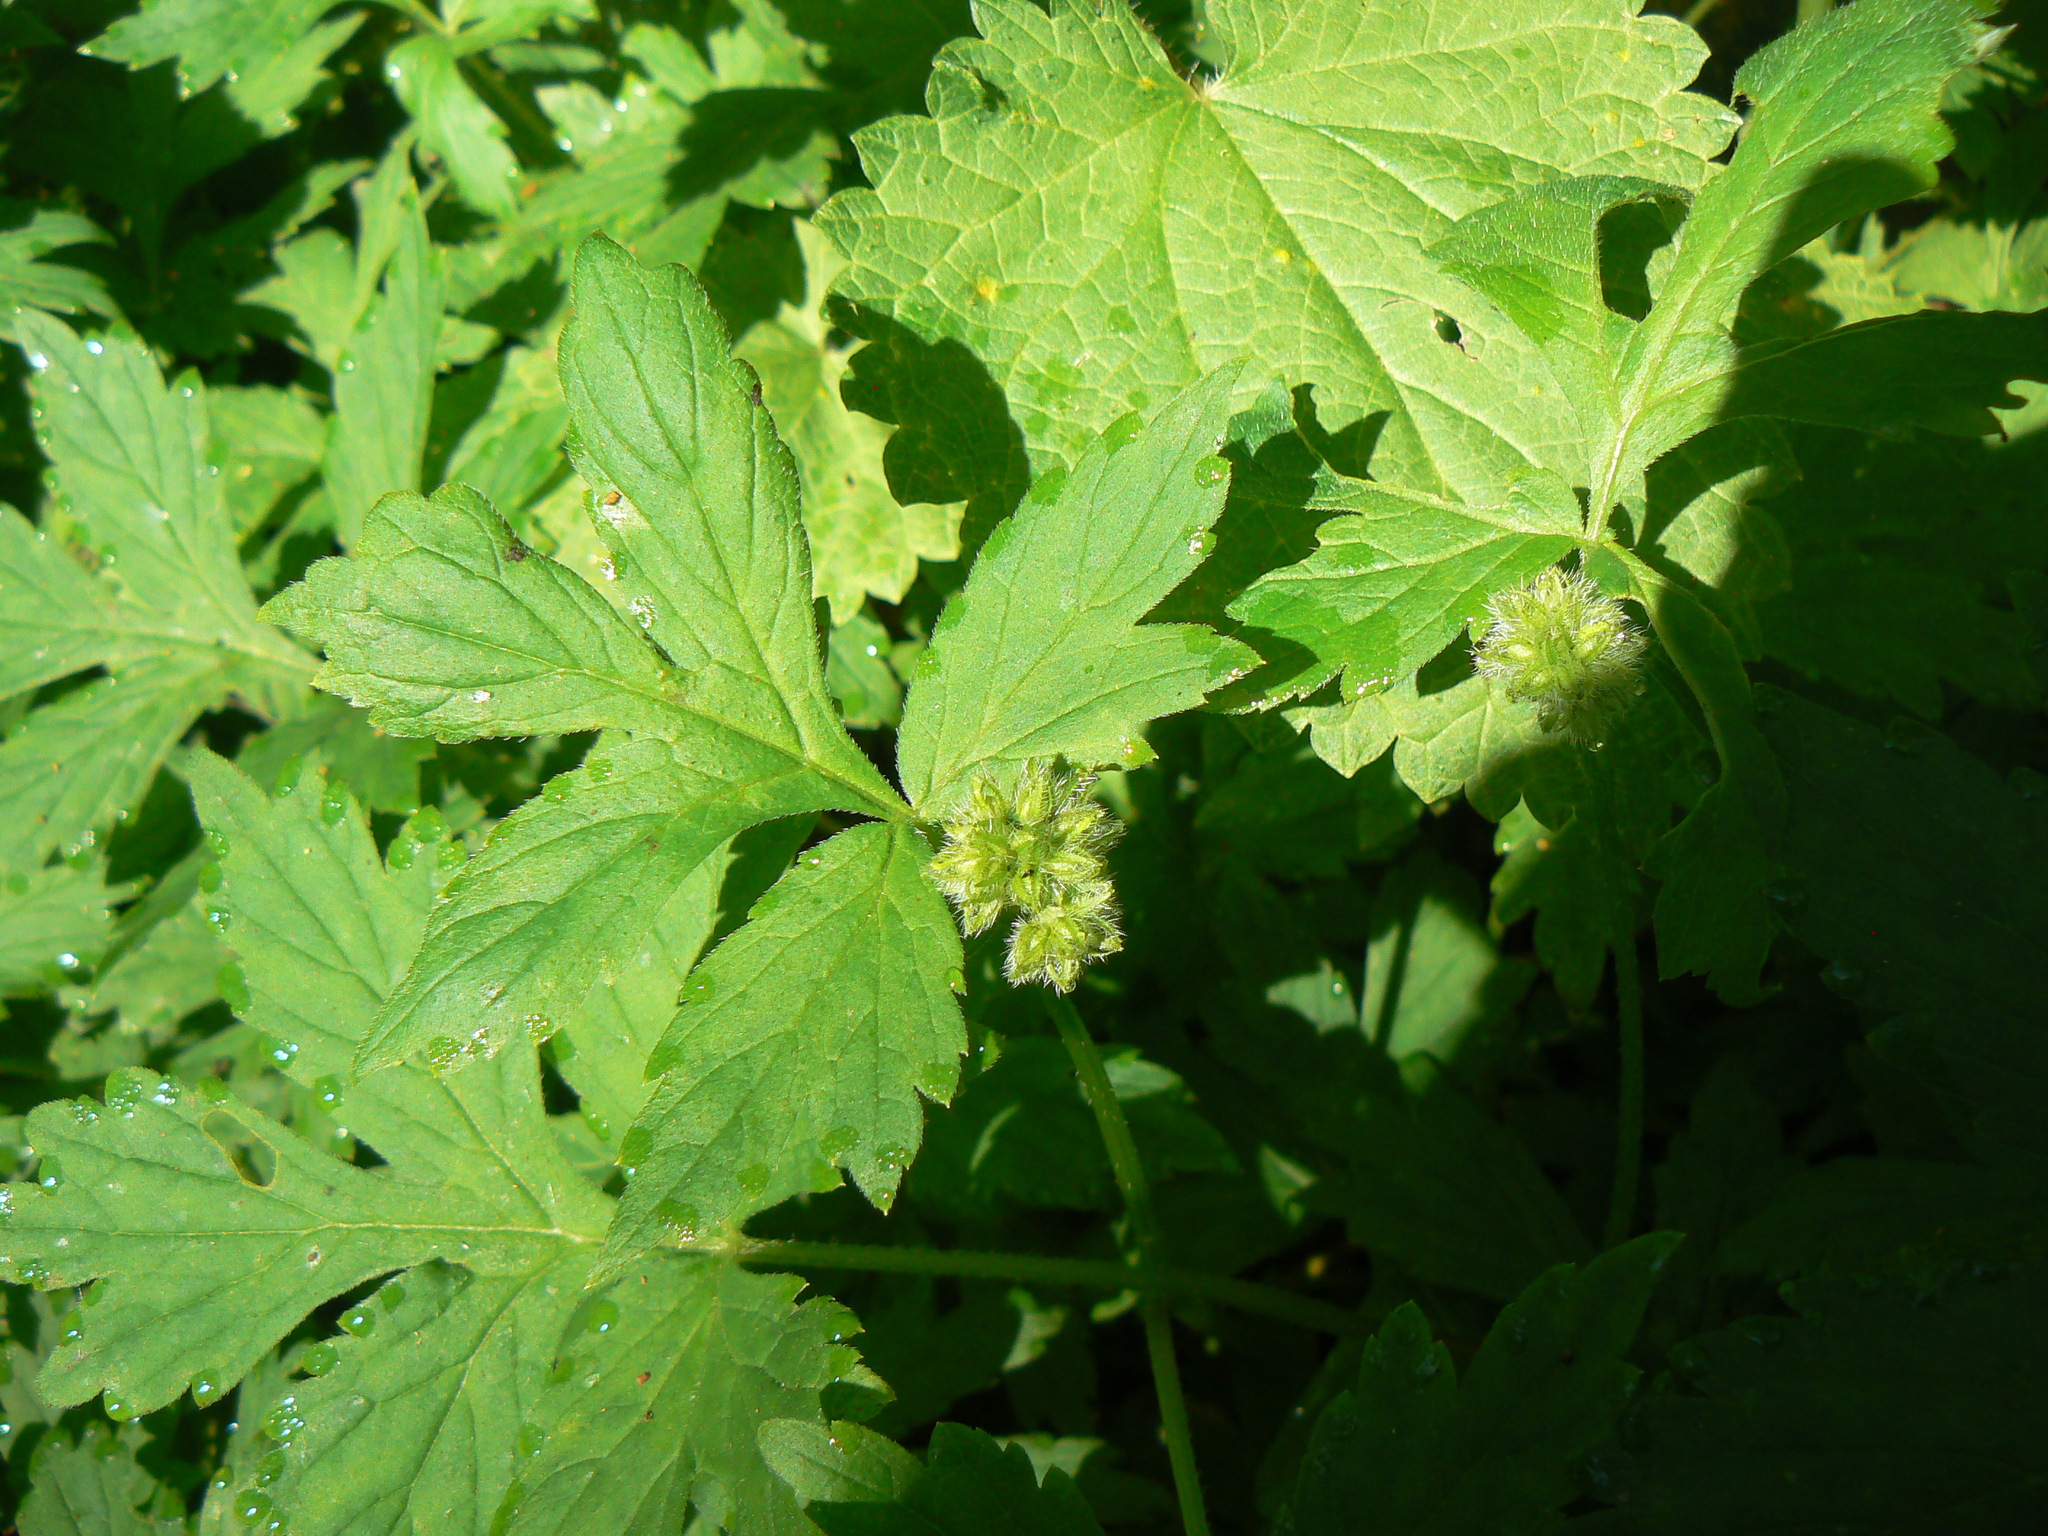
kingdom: Plantae
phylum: Tracheophyta
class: Magnoliopsida
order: Boraginales
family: Hydrophyllaceae
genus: Hydrophyllum
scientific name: Hydrophyllum tenuipes
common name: Pacific waterleaf
